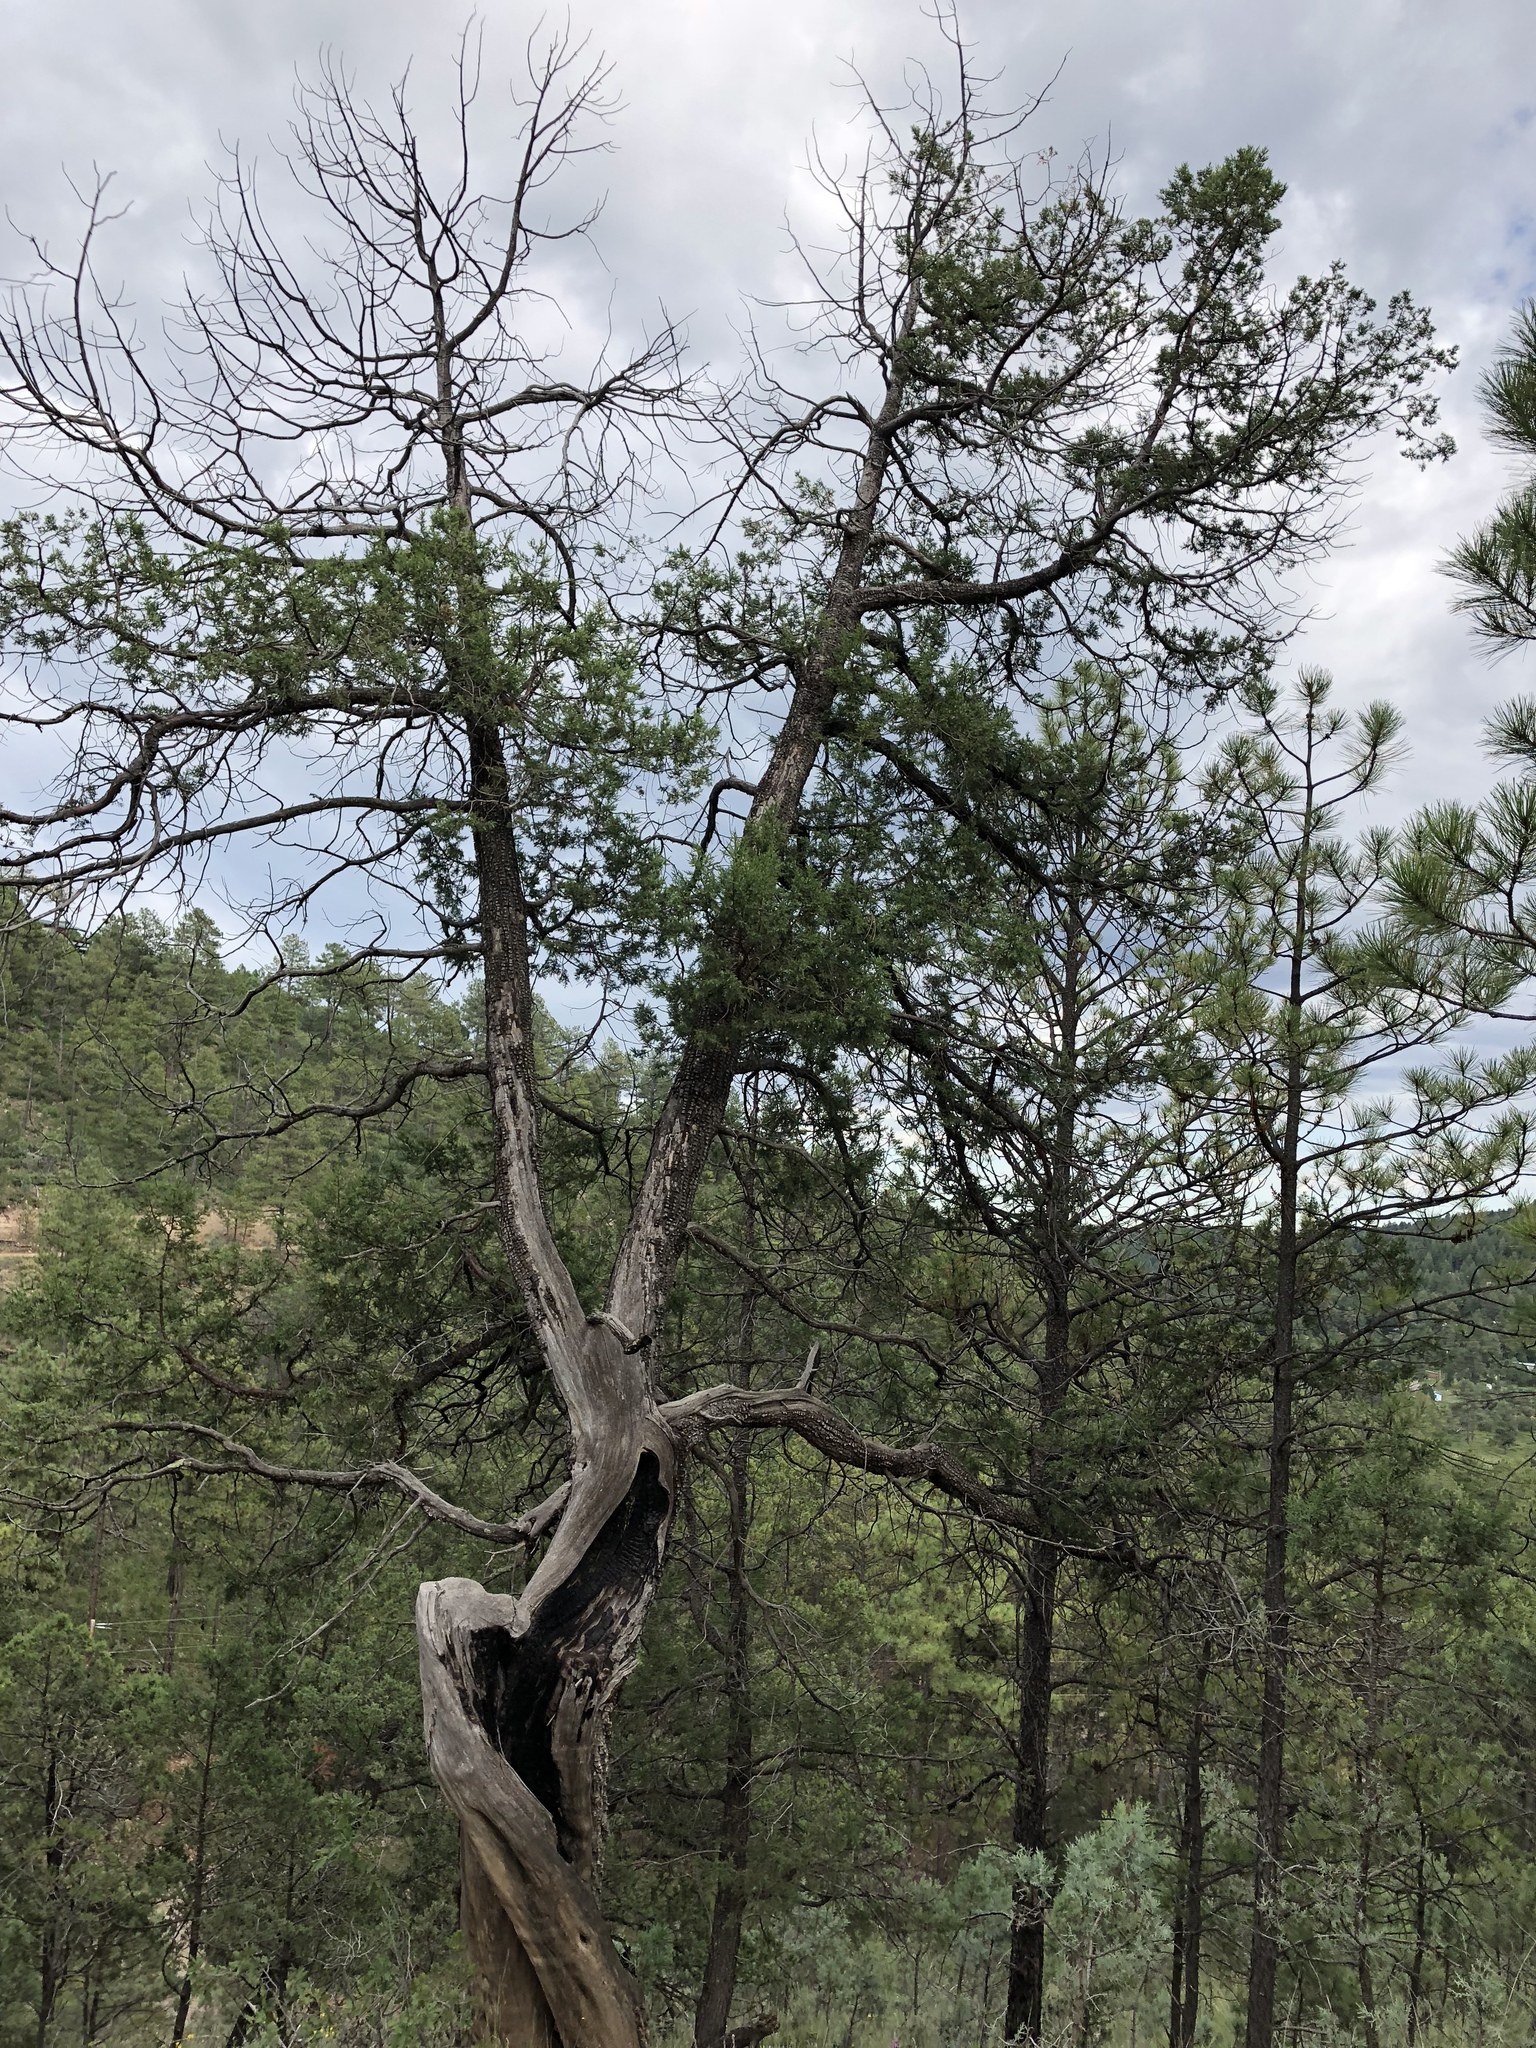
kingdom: Plantae
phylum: Tracheophyta
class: Pinopsida
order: Pinales
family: Cupressaceae
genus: Juniperus
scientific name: Juniperus deppeana
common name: Alligator juniper
